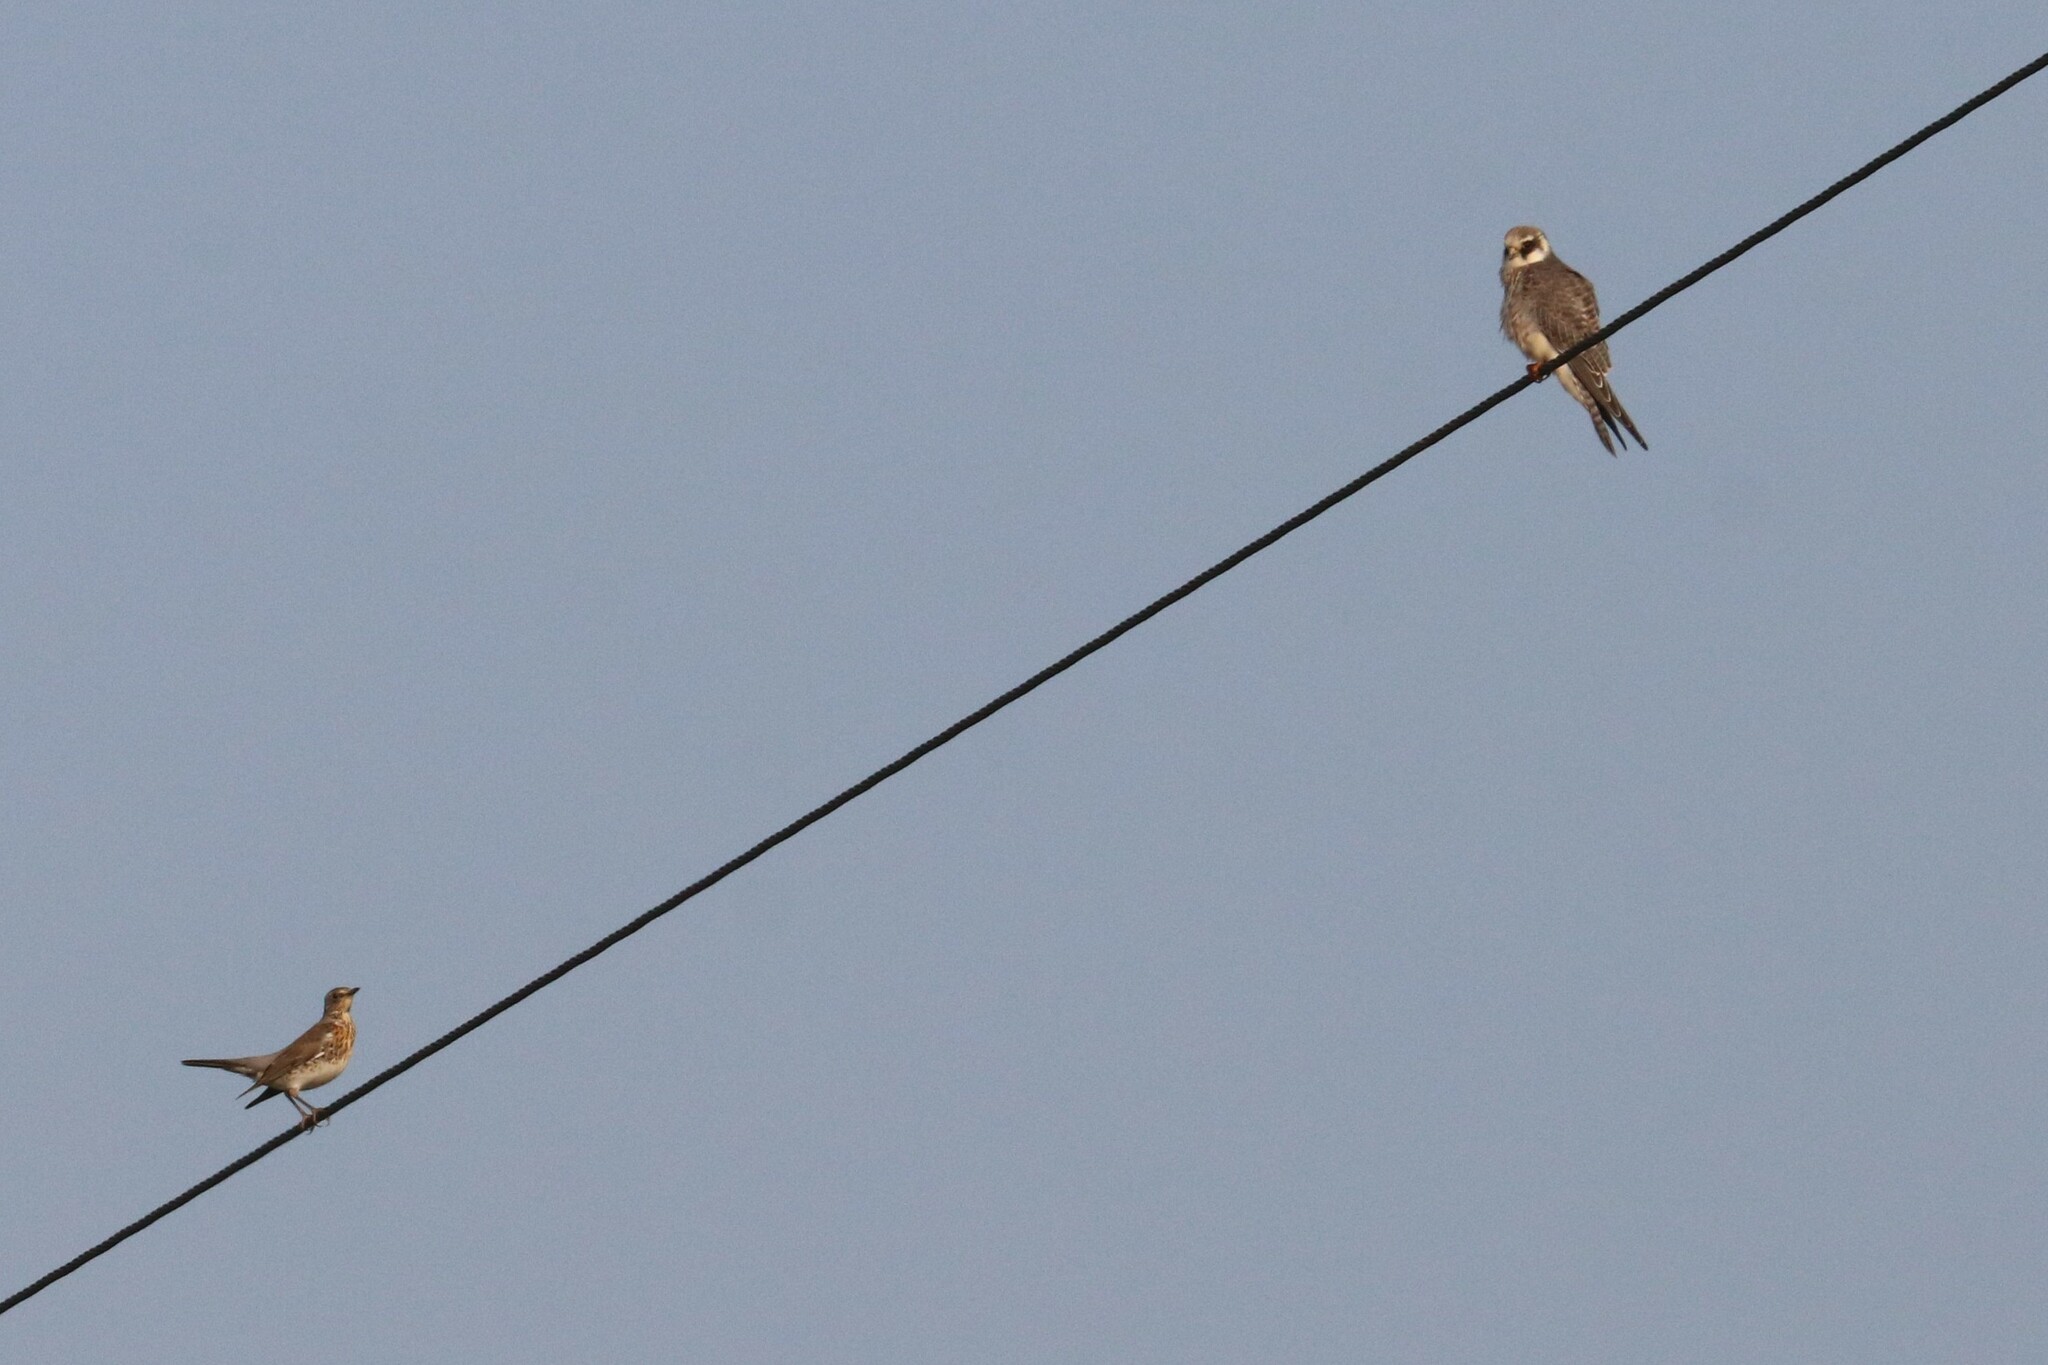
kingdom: Animalia
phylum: Chordata
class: Aves
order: Falconiformes
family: Falconidae
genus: Falco
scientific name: Falco vespertinus
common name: Red-footed falcon
